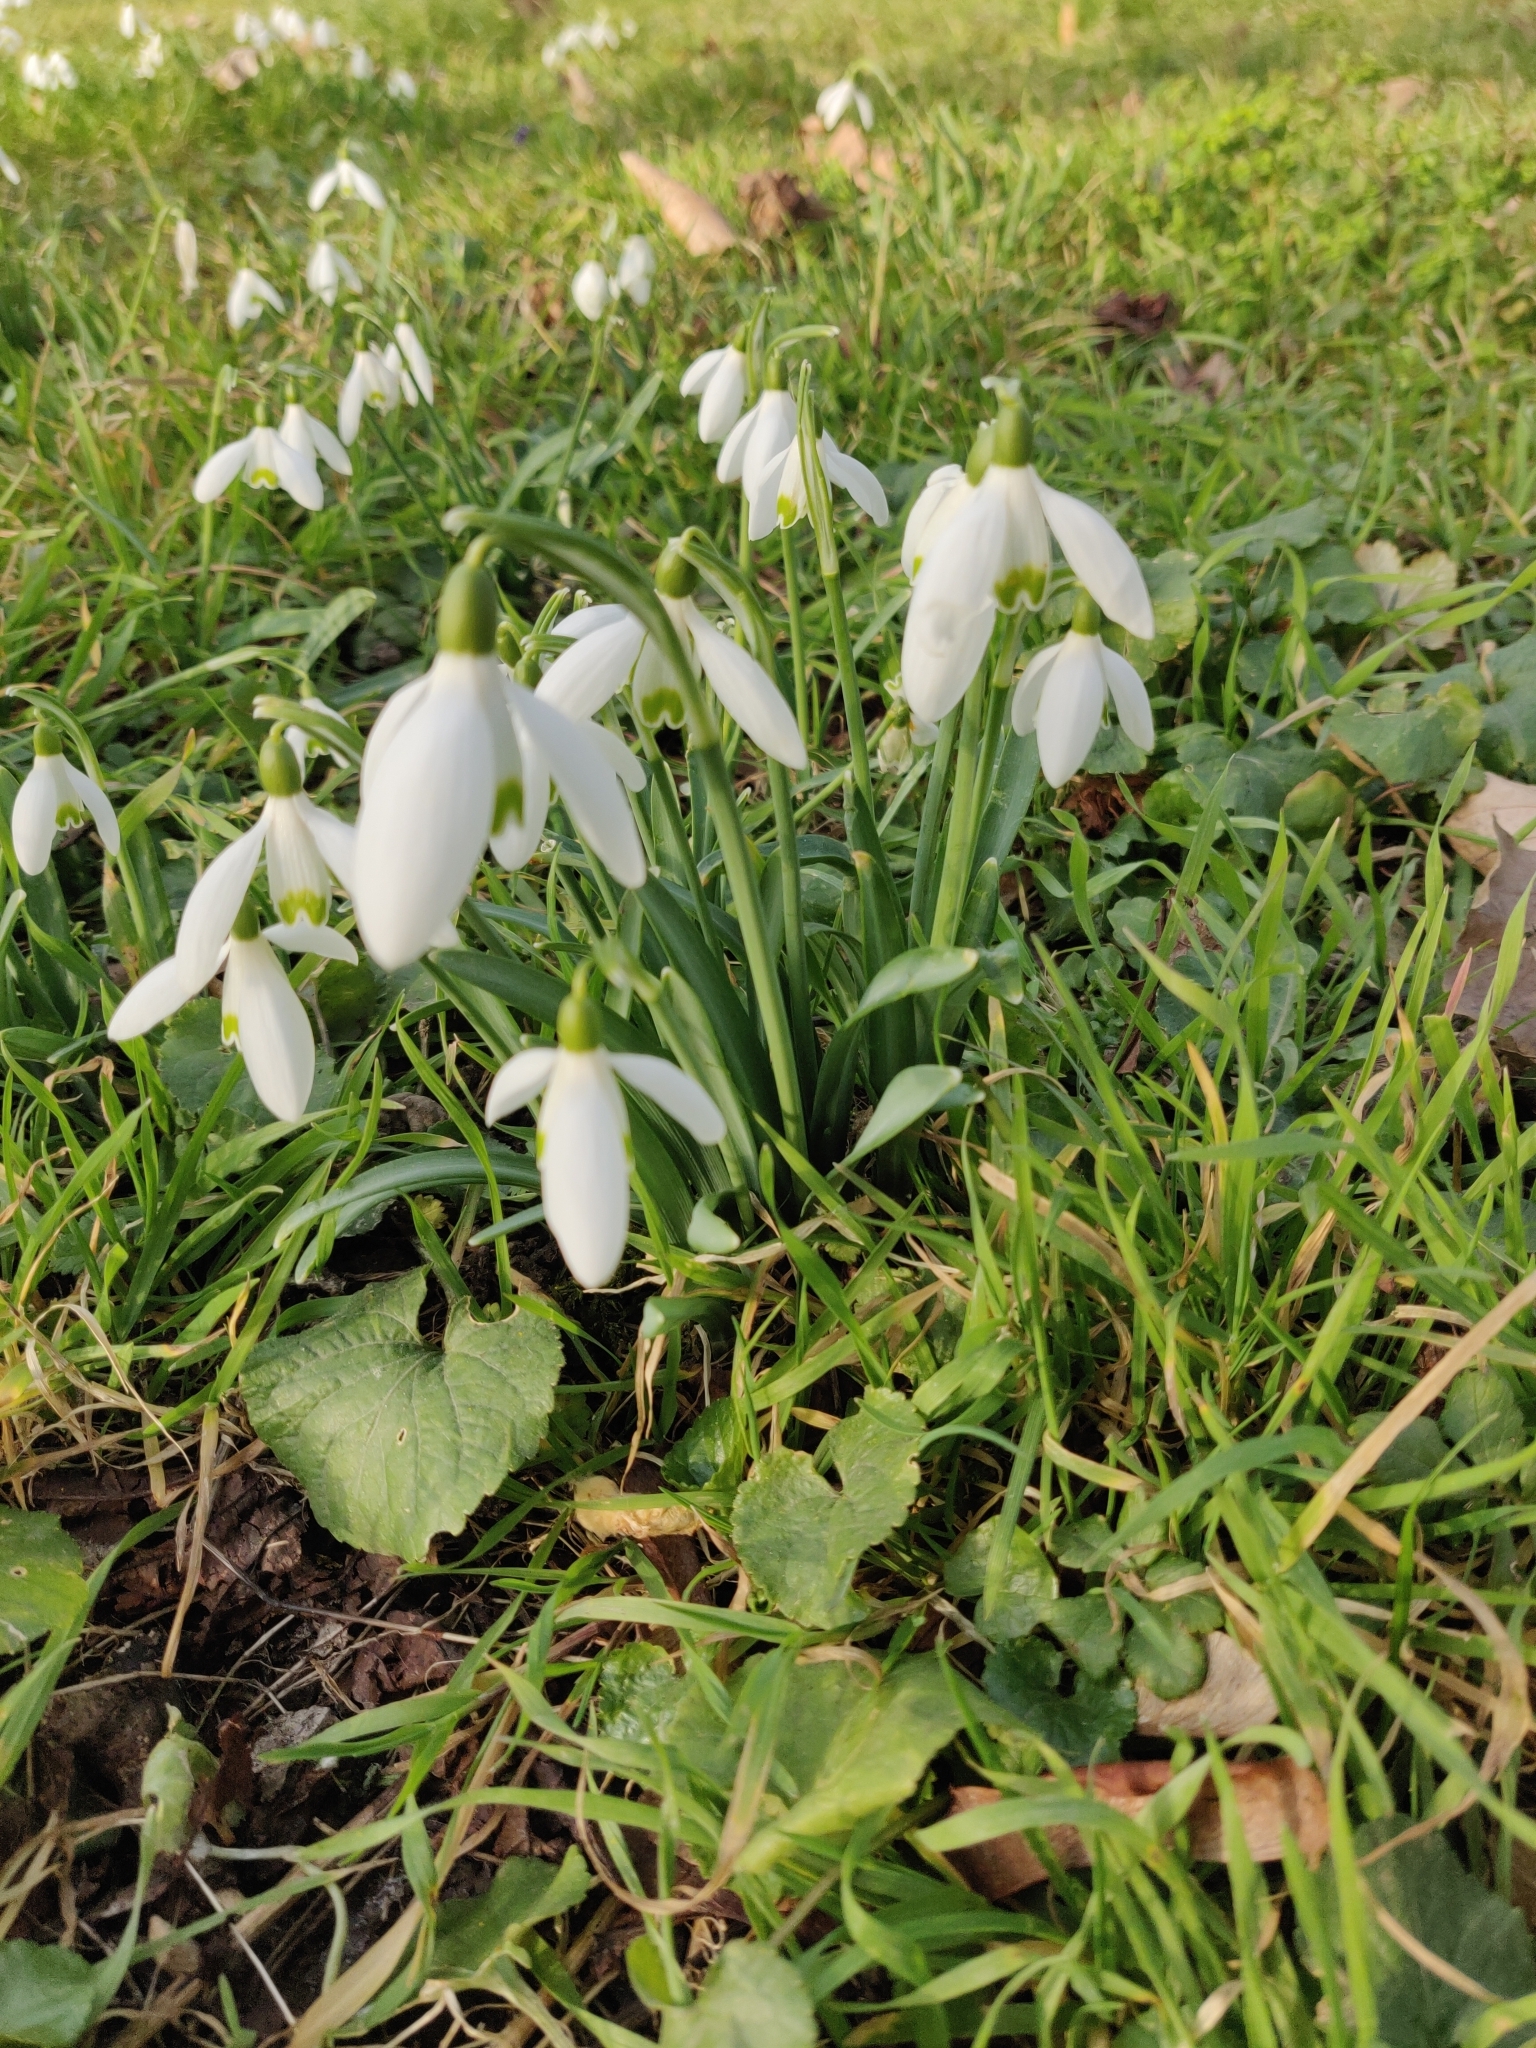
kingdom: Plantae
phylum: Tracheophyta
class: Liliopsida
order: Asparagales
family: Amaryllidaceae
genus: Galanthus
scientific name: Galanthus nivalis
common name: Snowdrop
